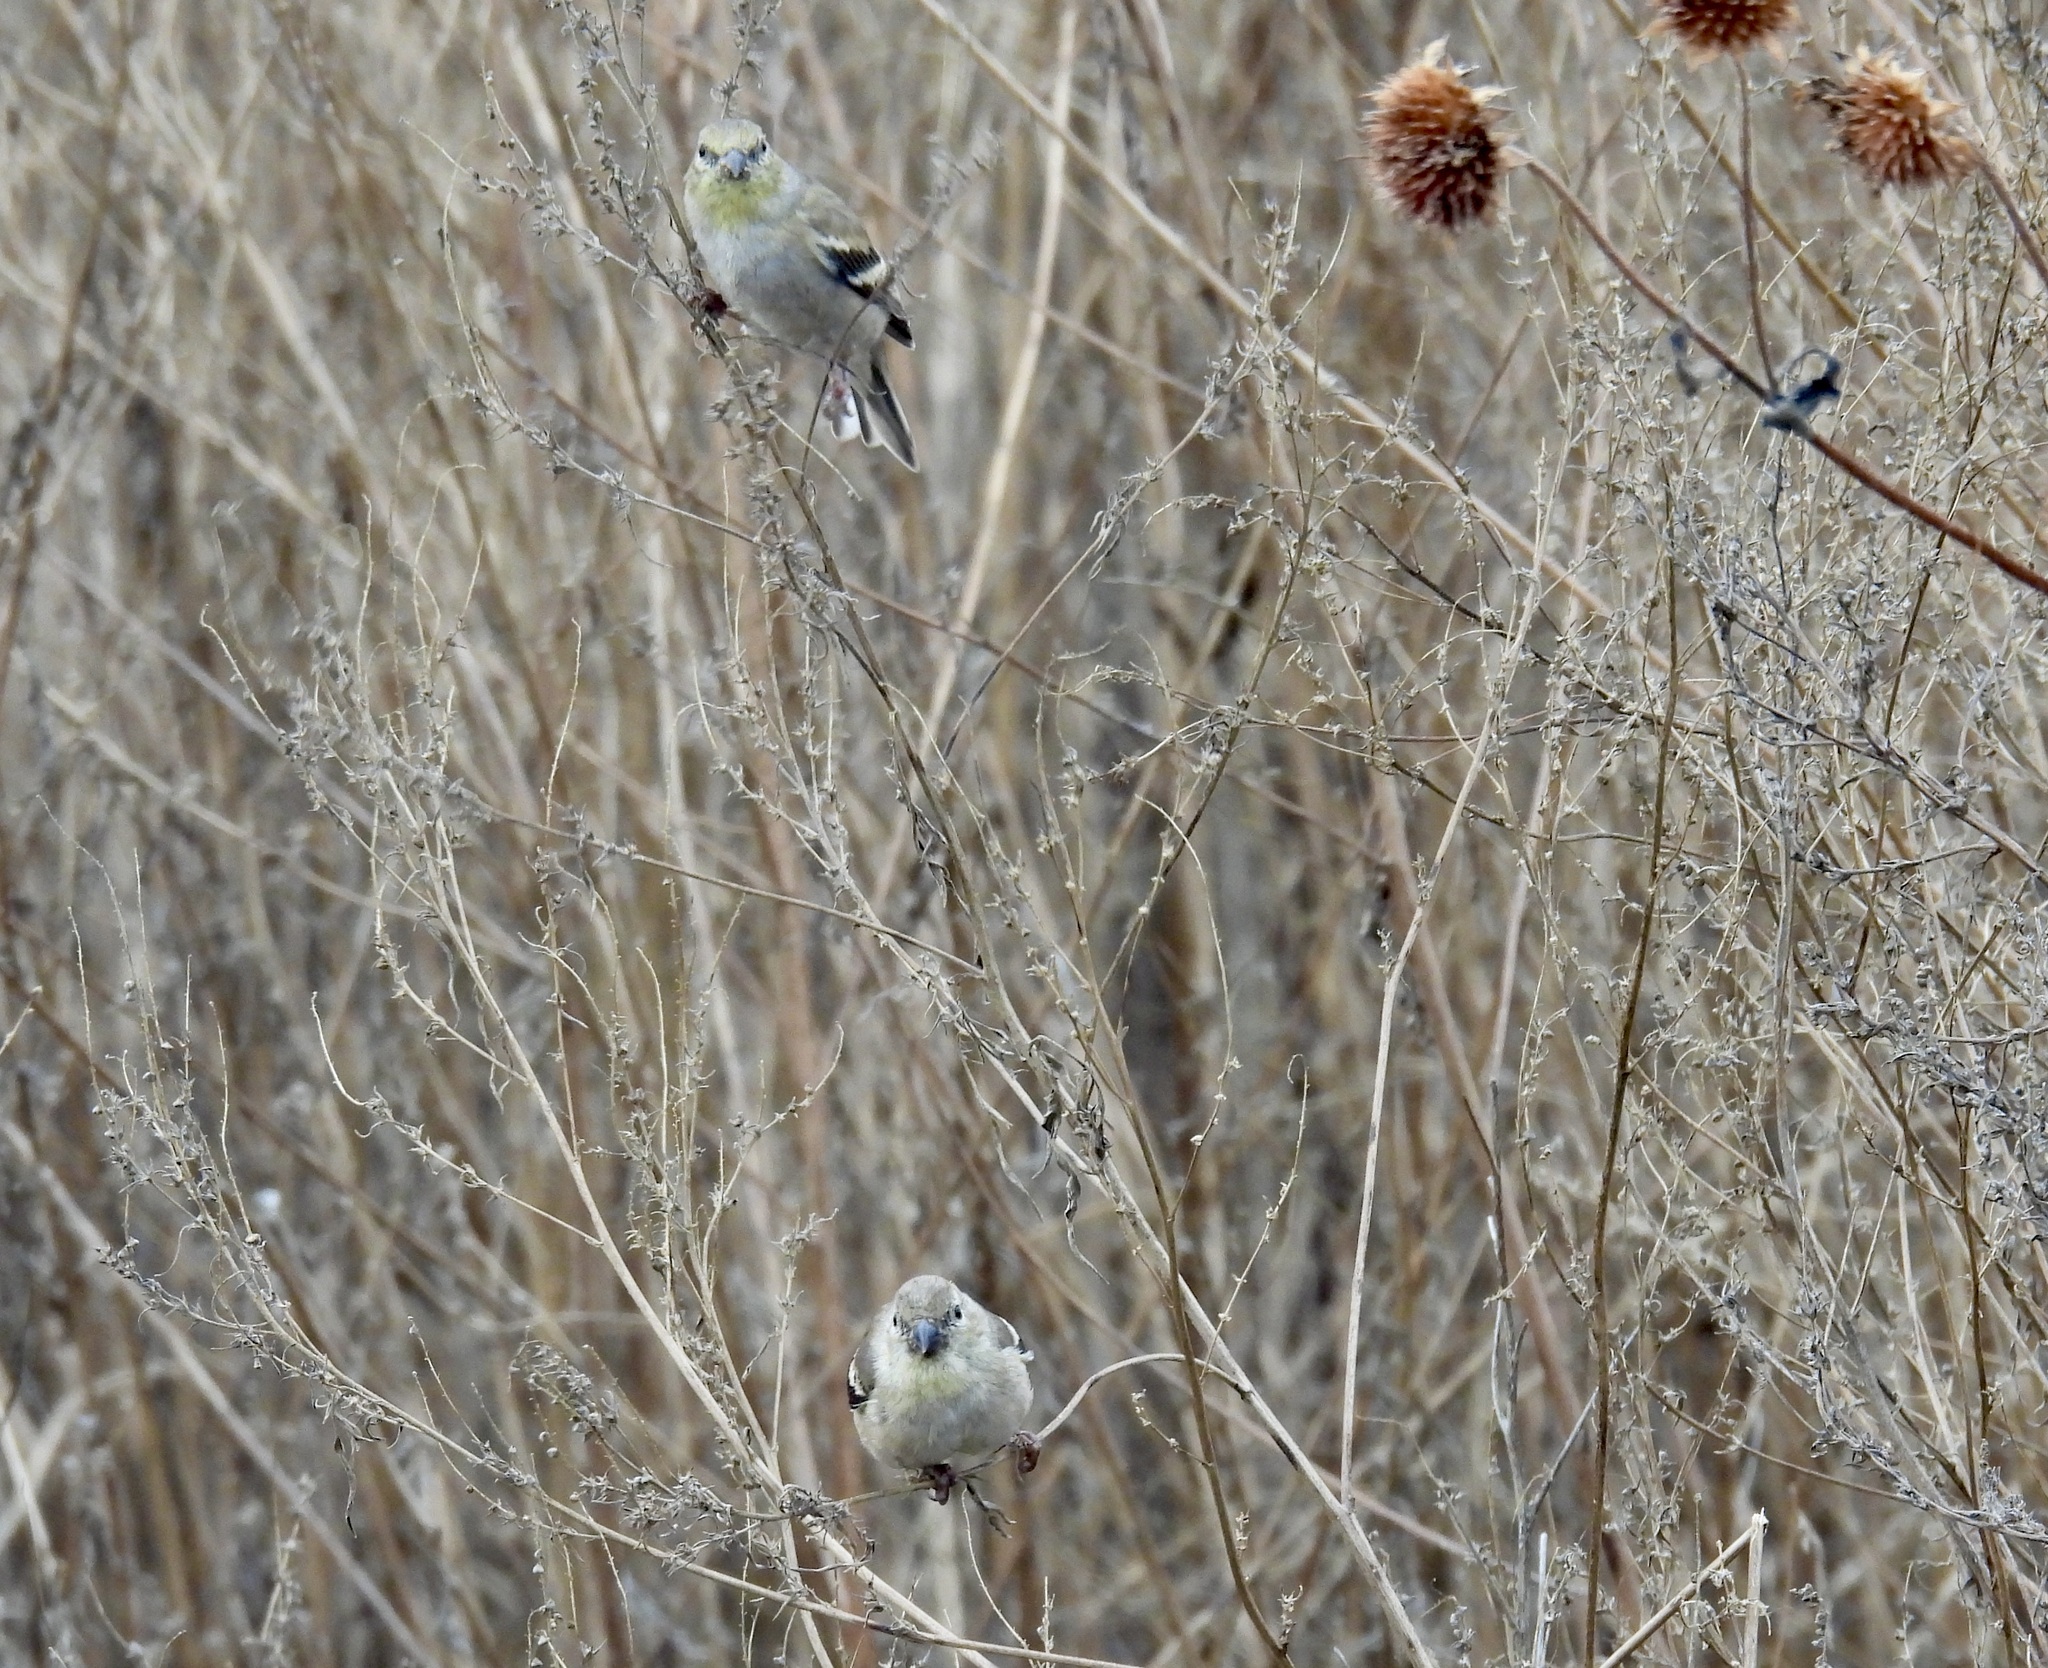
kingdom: Animalia
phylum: Chordata
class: Aves
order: Passeriformes
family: Fringillidae
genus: Spinus
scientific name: Spinus tristis
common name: American goldfinch
